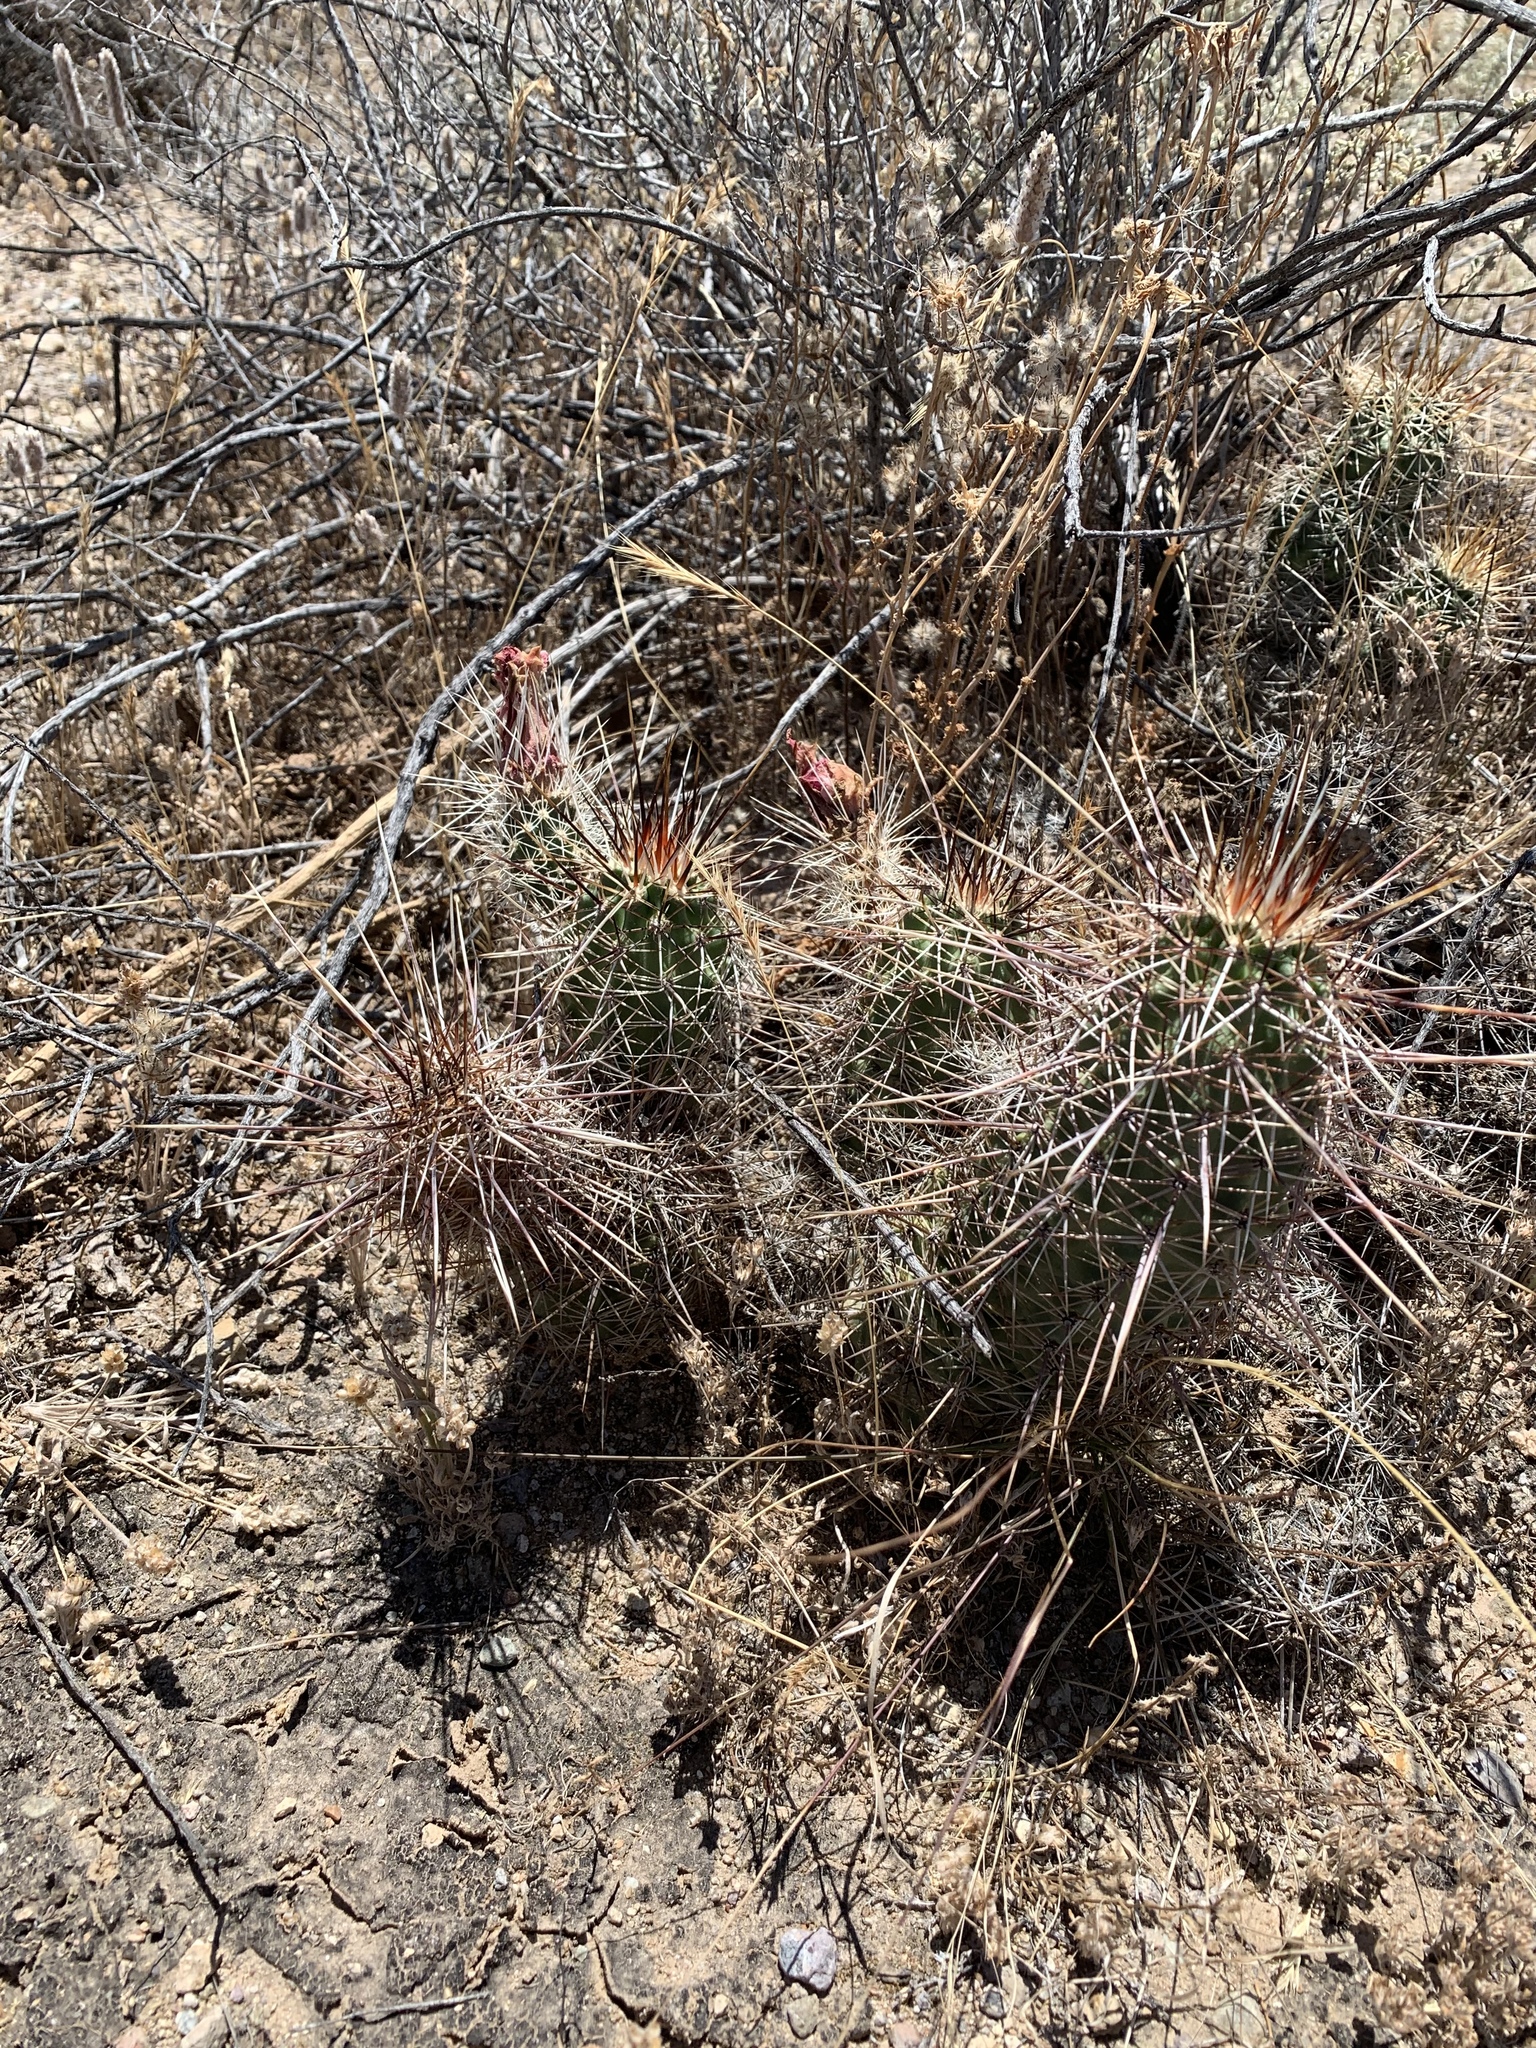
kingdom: Plantae
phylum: Tracheophyta
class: Magnoliopsida
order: Caryophyllales
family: Cactaceae
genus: Echinocereus
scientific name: Echinocereus fasciculatus
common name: Bundle hedgehog
